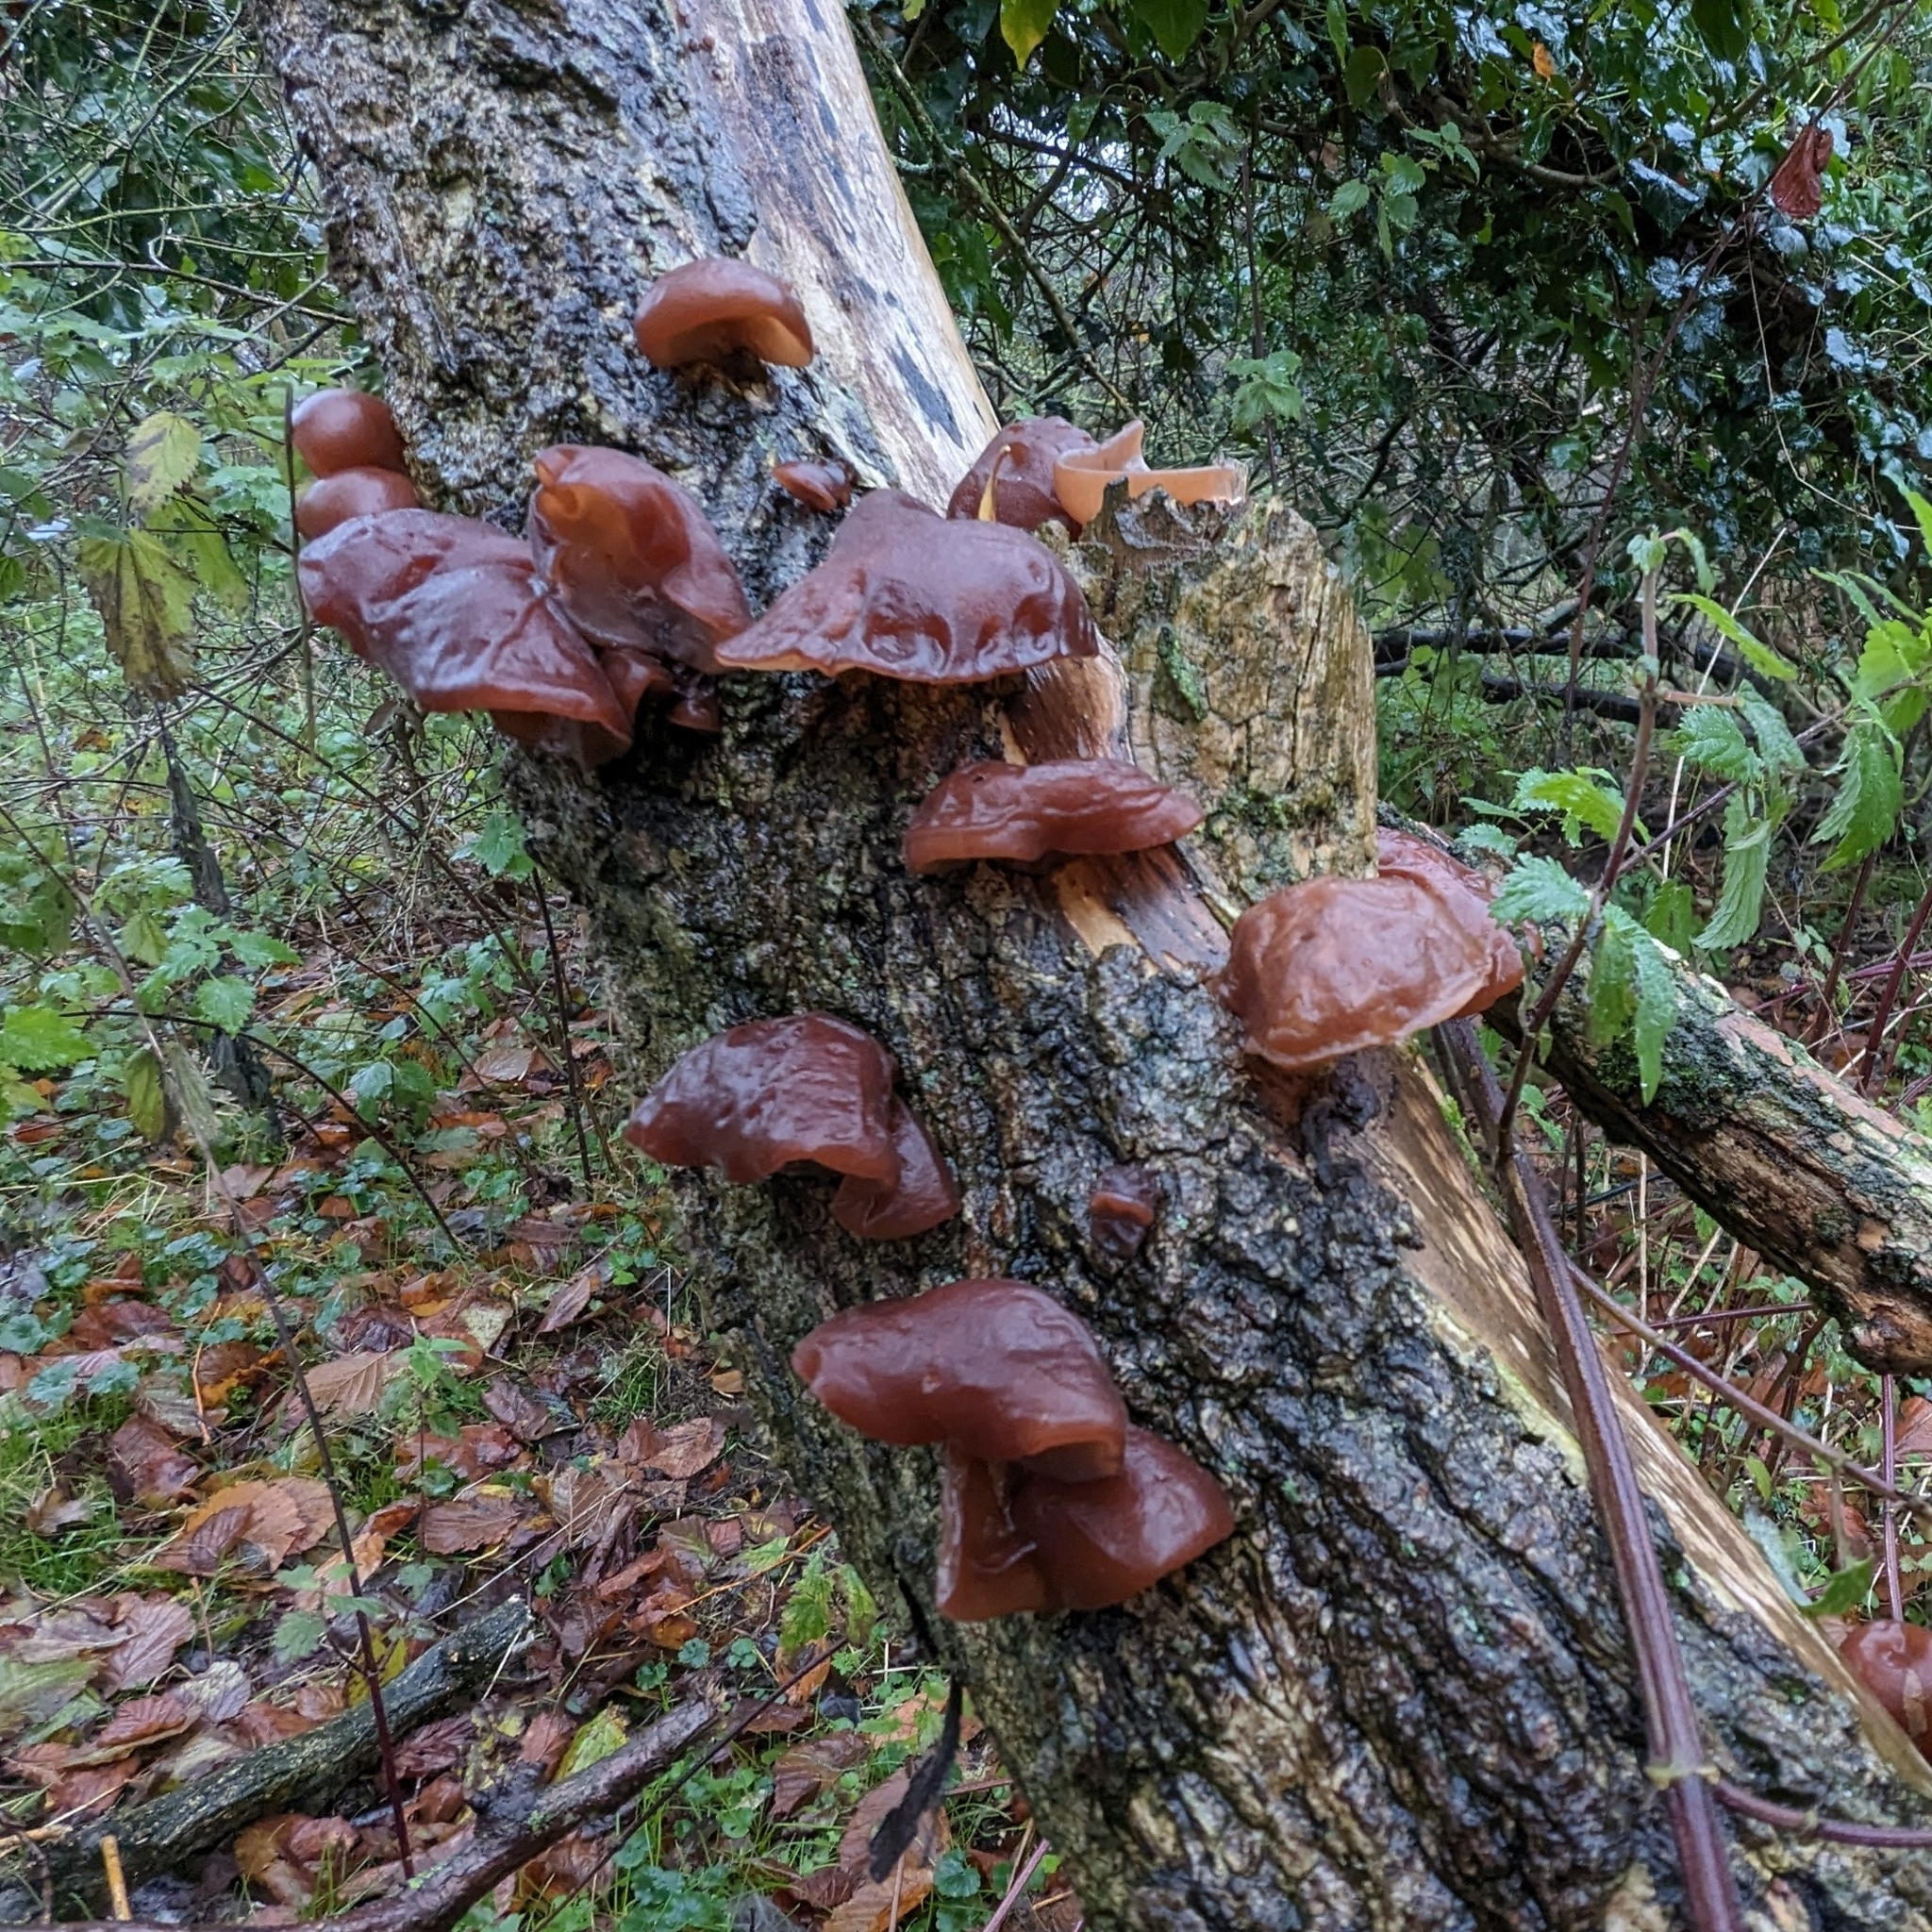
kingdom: Fungi
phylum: Basidiomycota
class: Agaricomycetes
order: Auriculariales
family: Auriculariaceae
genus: Auricularia
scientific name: Auricularia auricula-judae
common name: Jelly ear
